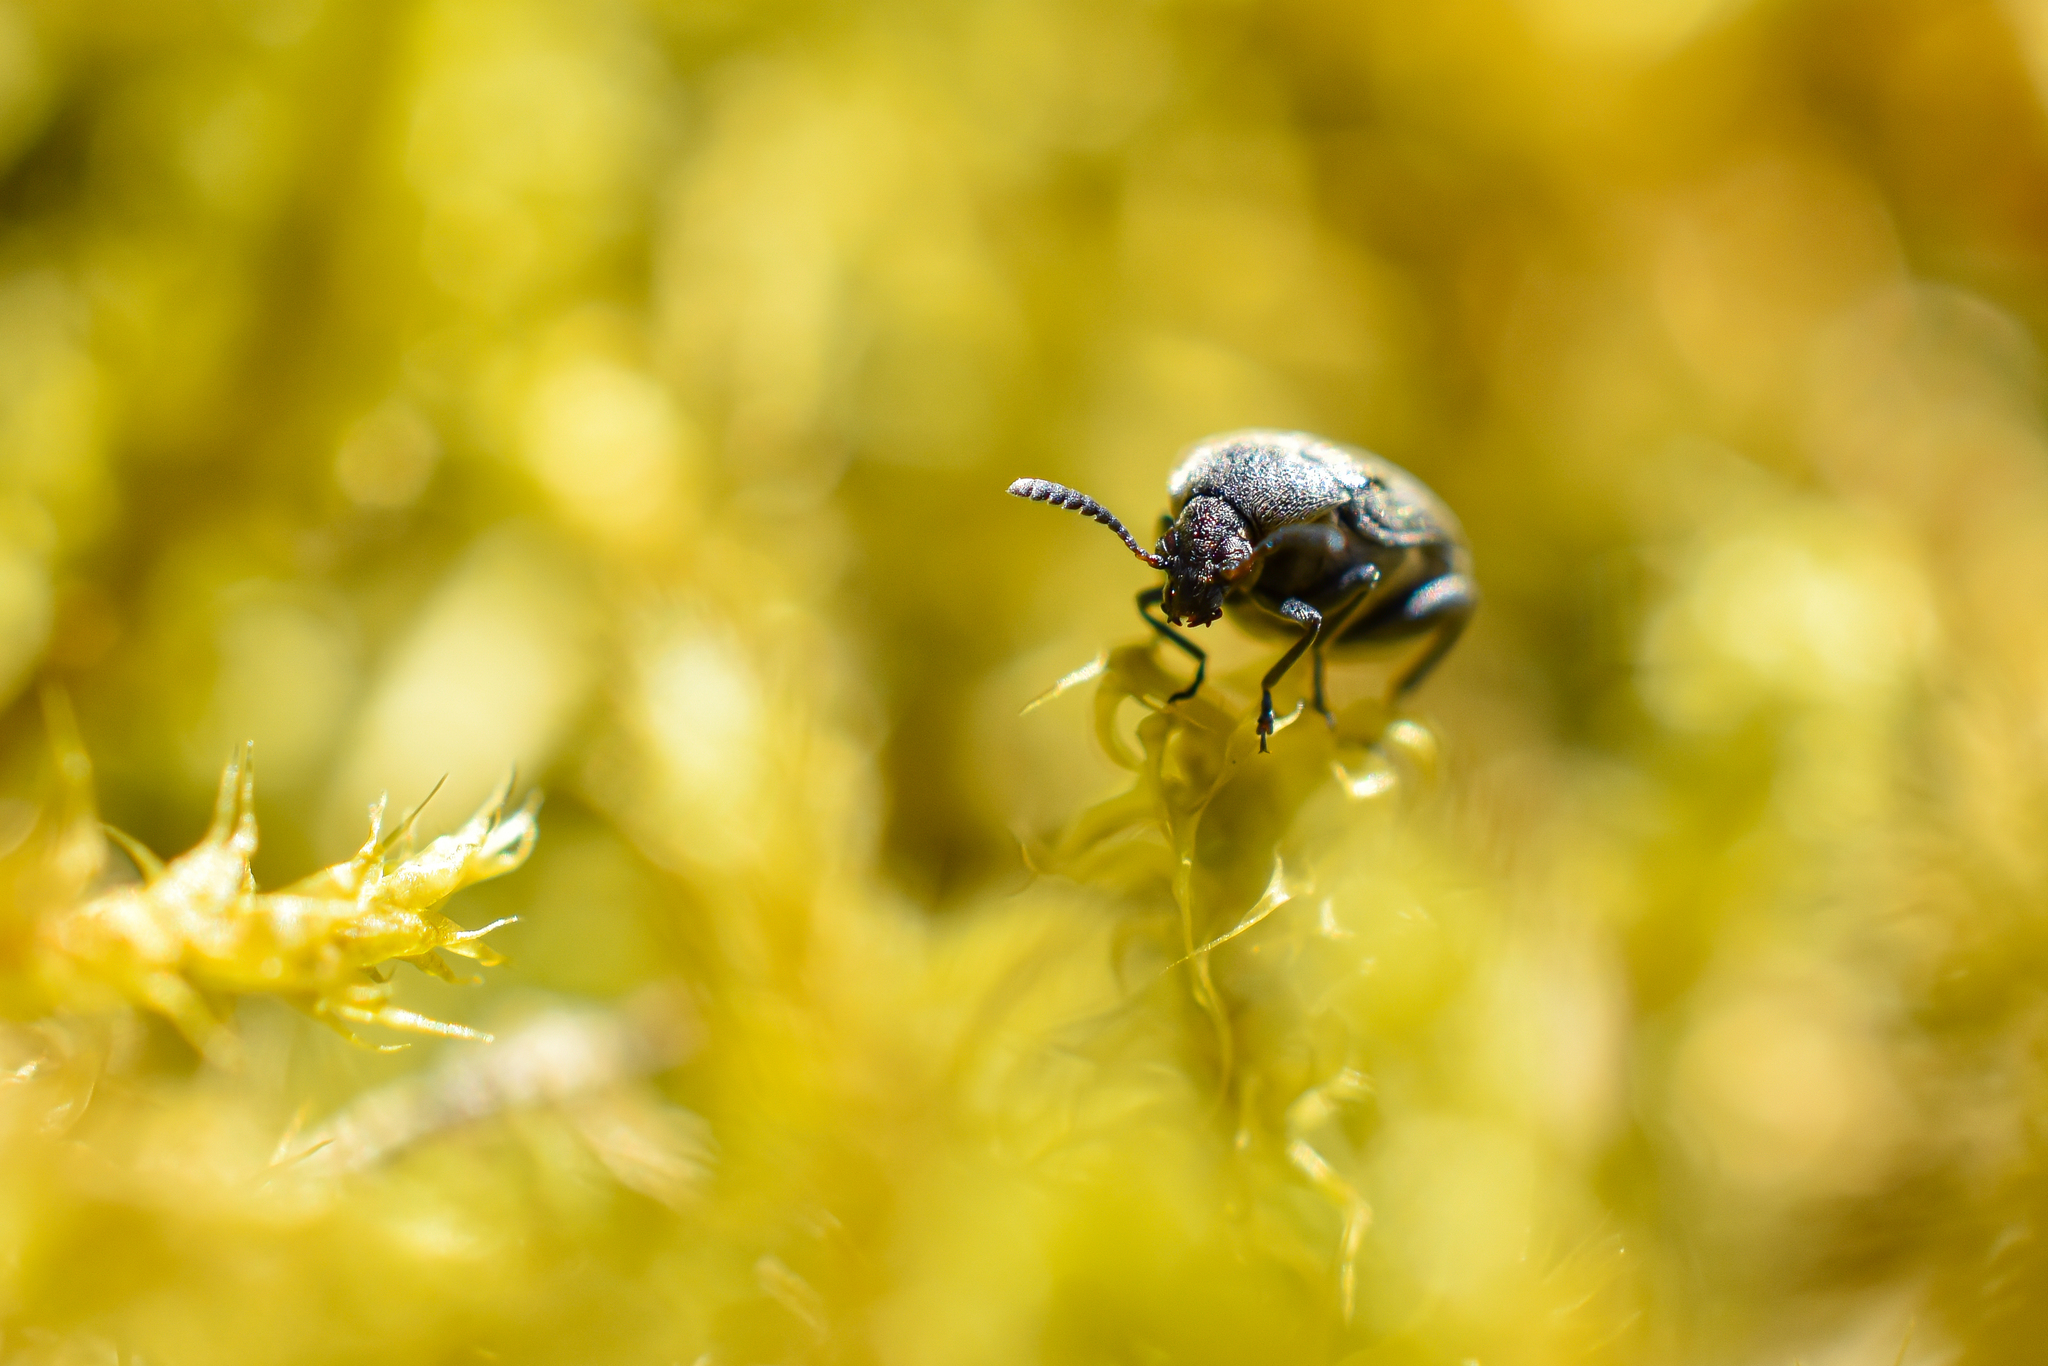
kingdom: Animalia
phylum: Arthropoda
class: Insecta
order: Coleoptera
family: Chrysomelidae
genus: Bruchidius
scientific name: Bruchidius villosus
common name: Scotch broom bruchid
